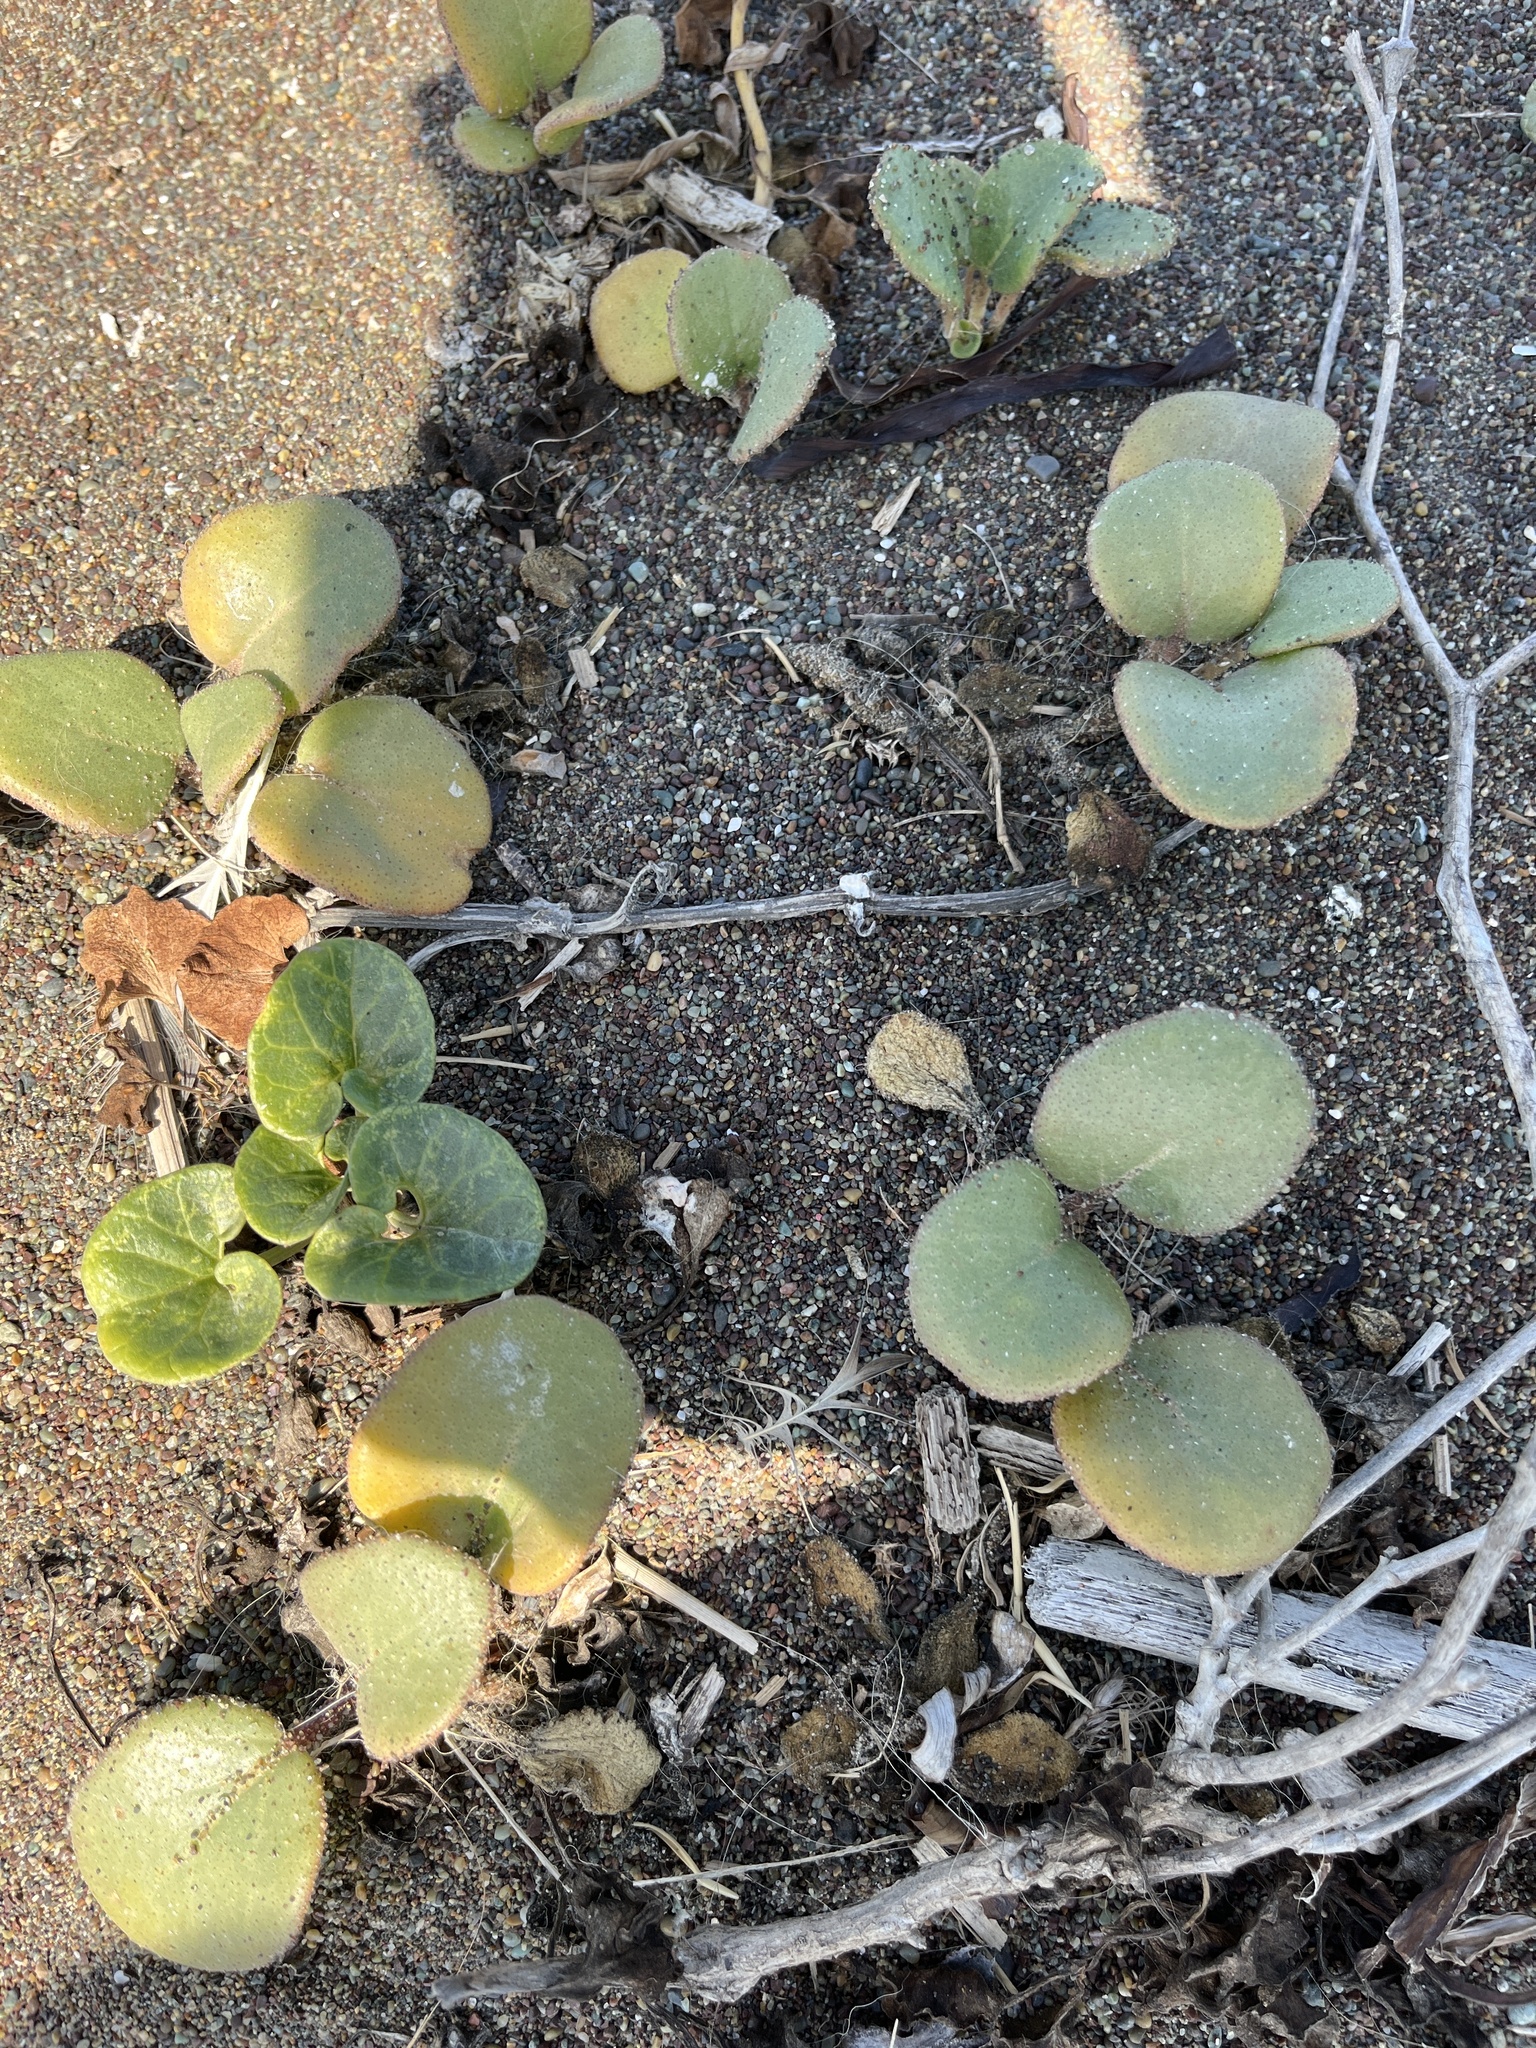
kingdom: Plantae
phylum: Tracheophyta
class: Magnoliopsida
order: Caryophyllales
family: Nyctaginaceae
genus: Abronia
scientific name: Abronia latifolia
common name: Yellow sand-verbena
